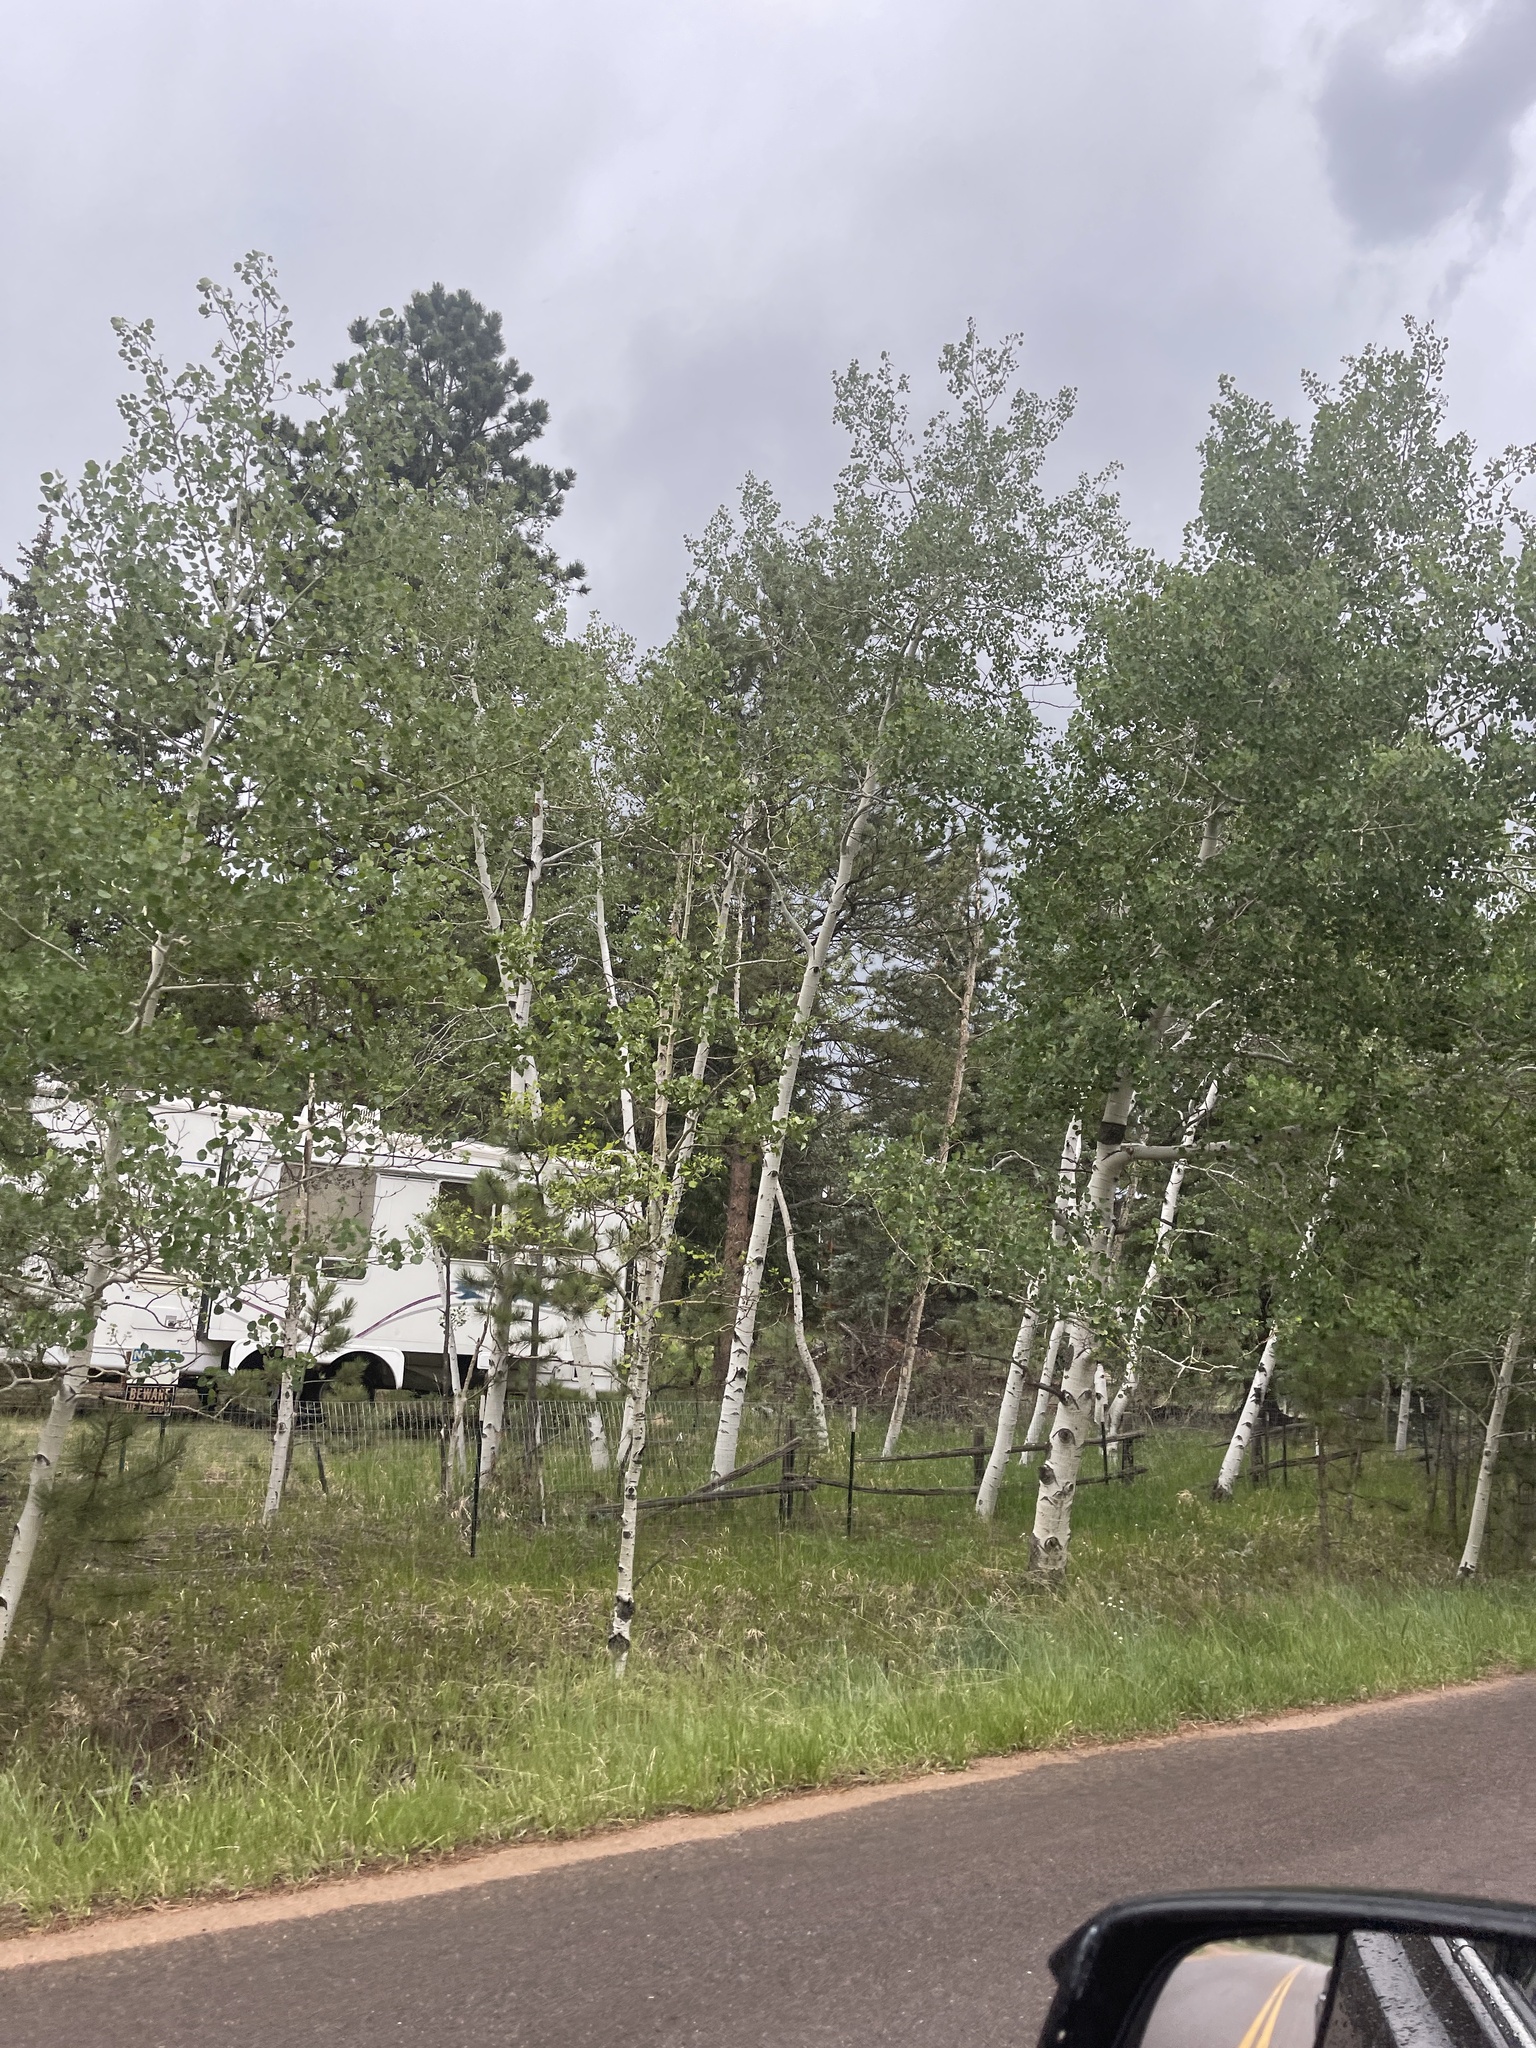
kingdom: Plantae
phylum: Tracheophyta
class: Magnoliopsida
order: Malpighiales
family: Salicaceae
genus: Populus
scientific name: Populus tremuloides
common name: Quaking aspen
